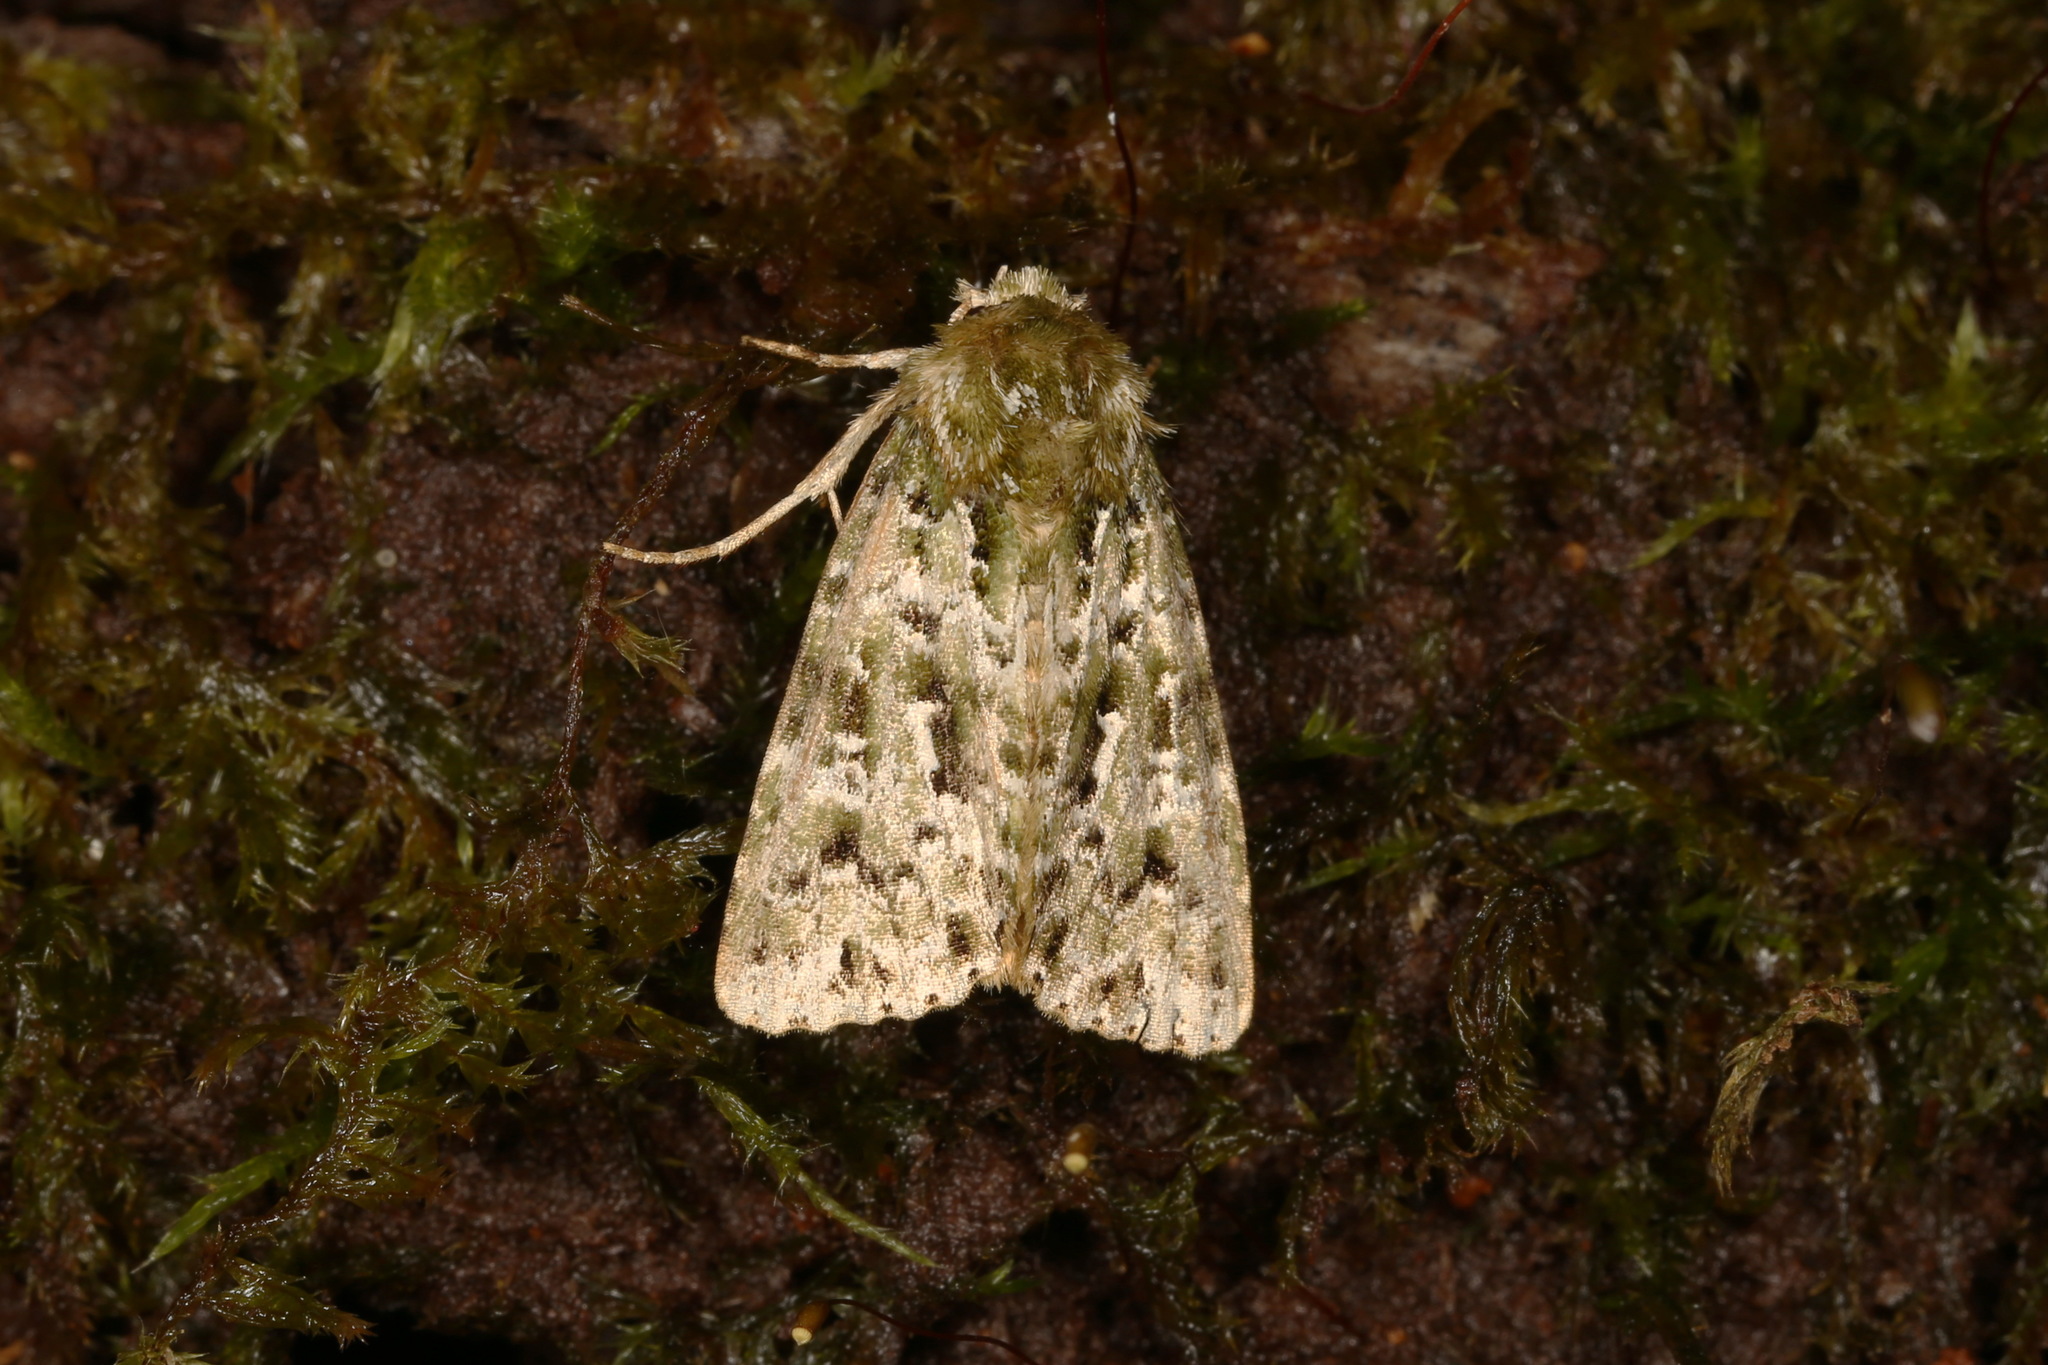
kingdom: Animalia
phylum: Arthropoda
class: Insecta
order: Lepidoptera
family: Noctuidae
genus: Thalatha
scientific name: Thalatha bryochlora
